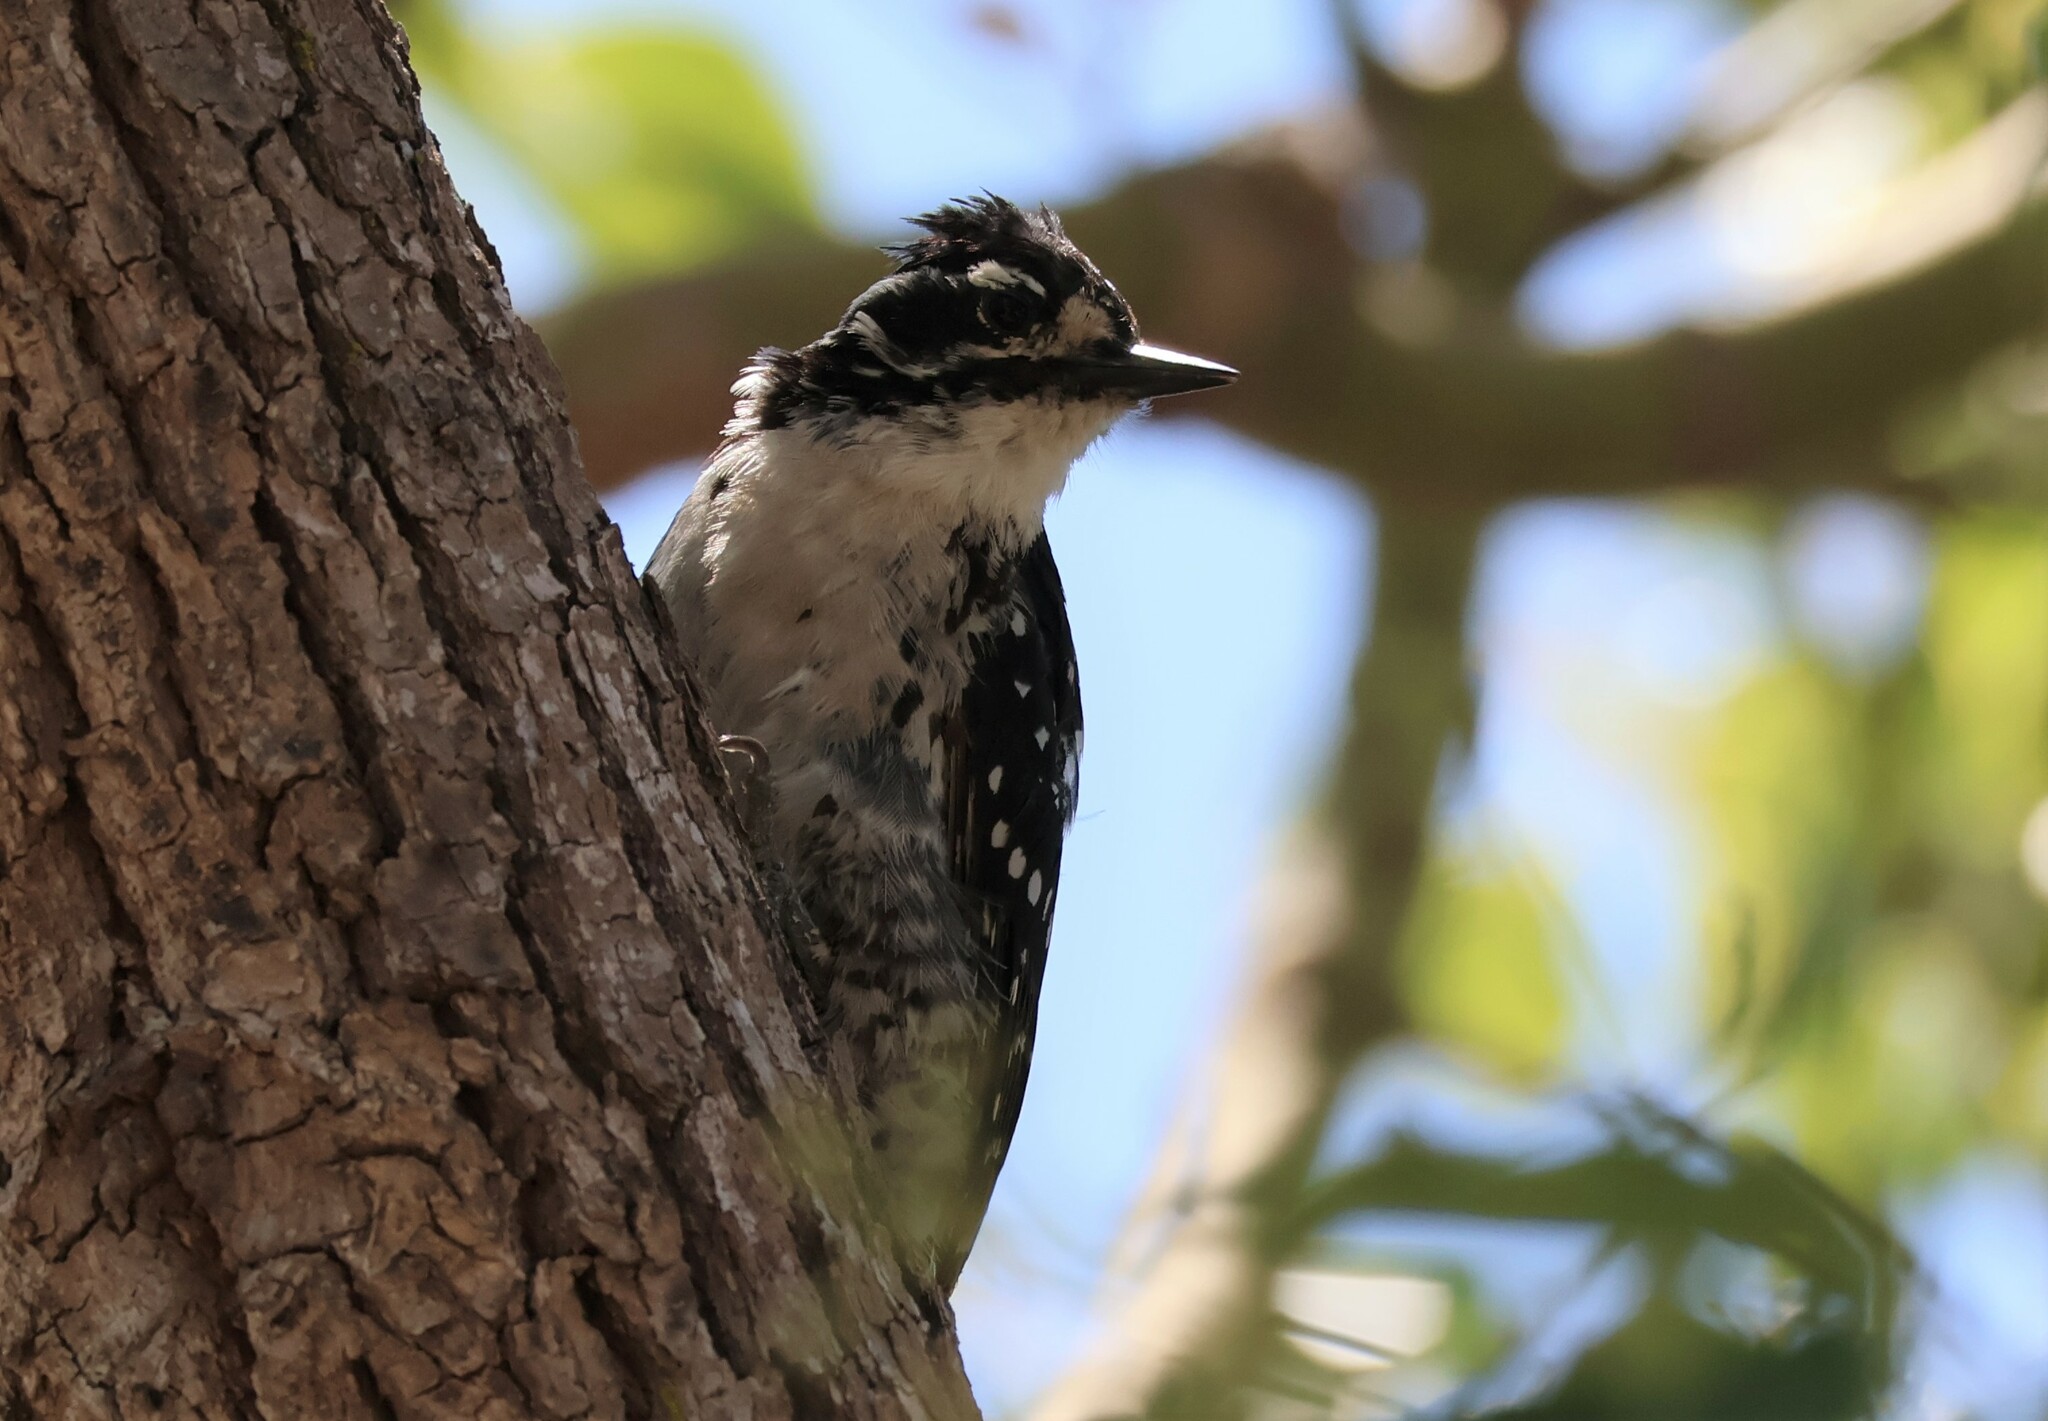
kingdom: Animalia
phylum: Chordata
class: Aves
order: Piciformes
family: Picidae
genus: Dryobates
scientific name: Dryobates nuttallii
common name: Nuttall's woodpecker
